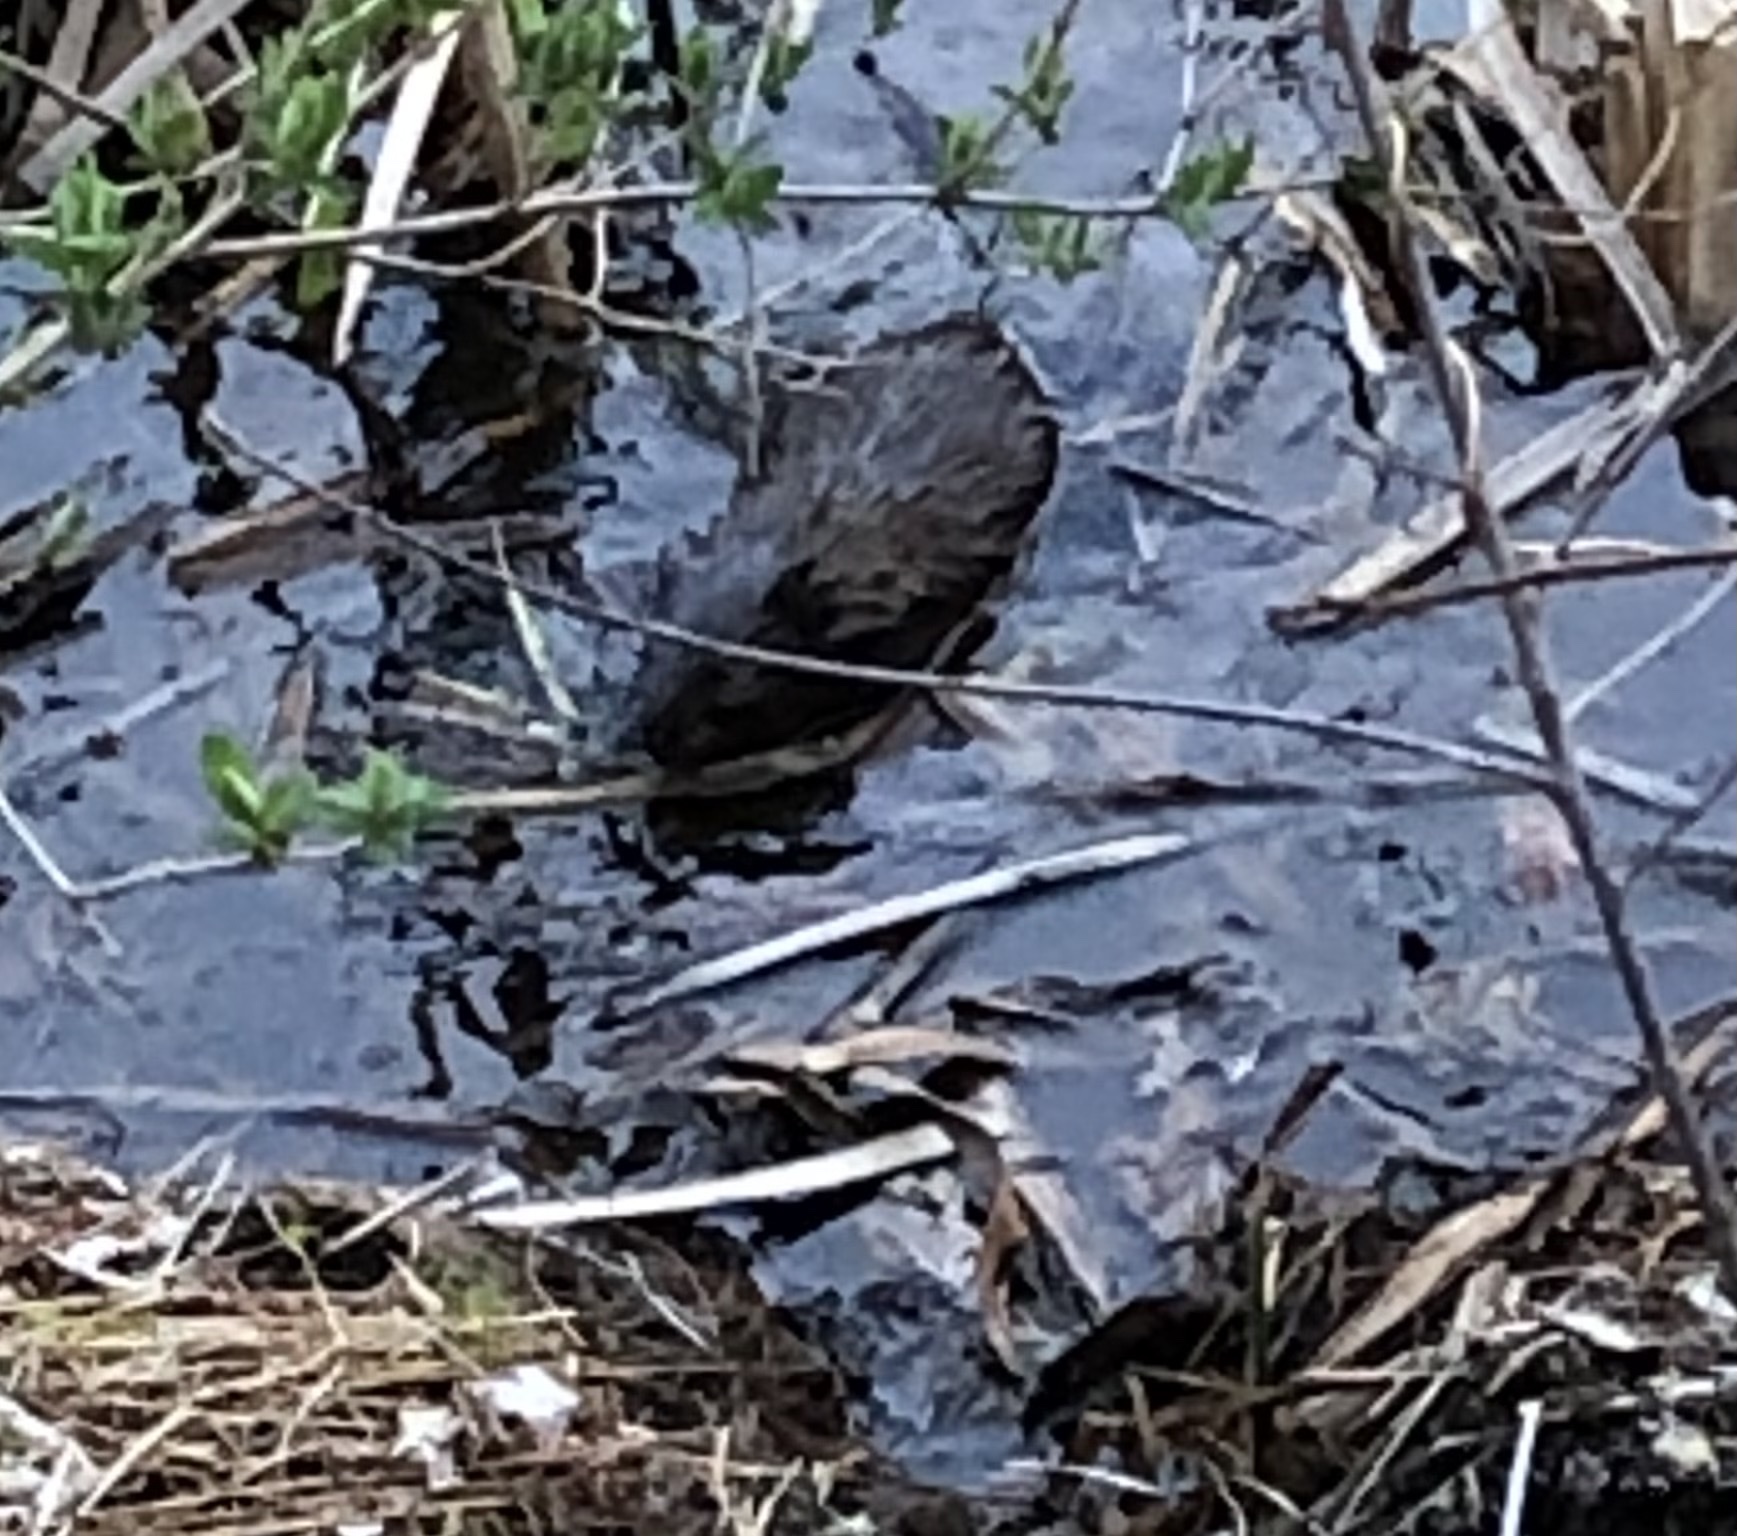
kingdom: Animalia
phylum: Chordata
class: Mammalia
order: Rodentia
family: Cricetidae
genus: Ondatra
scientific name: Ondatra zibethicus
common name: Muskrat
